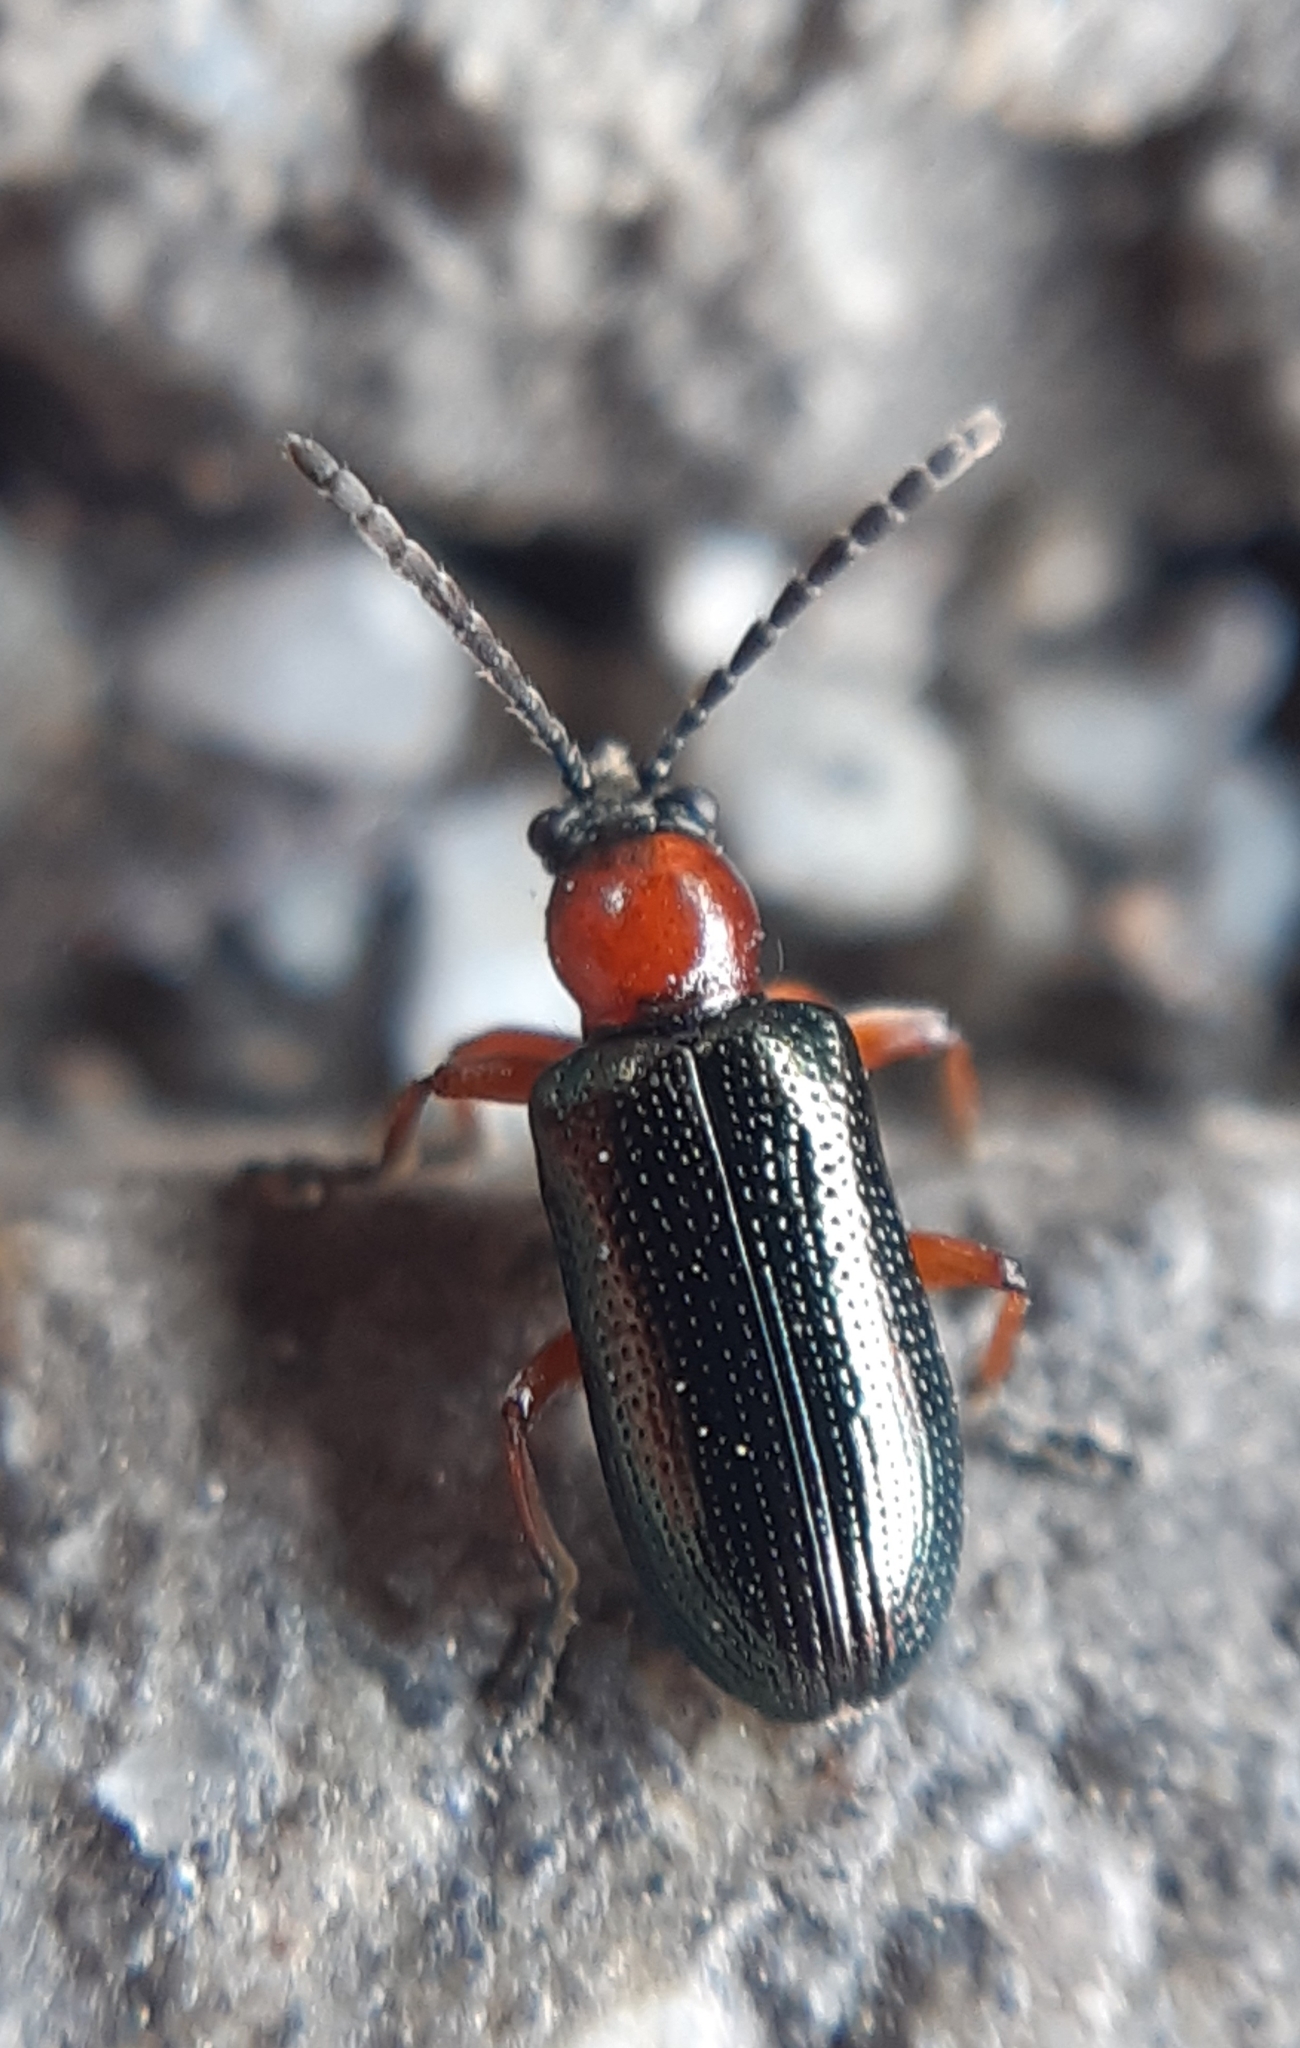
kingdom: Animalia
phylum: Arthropoda
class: Insecta
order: Coleoptera
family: Chrysomelidae
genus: Oulema
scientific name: Oulema
